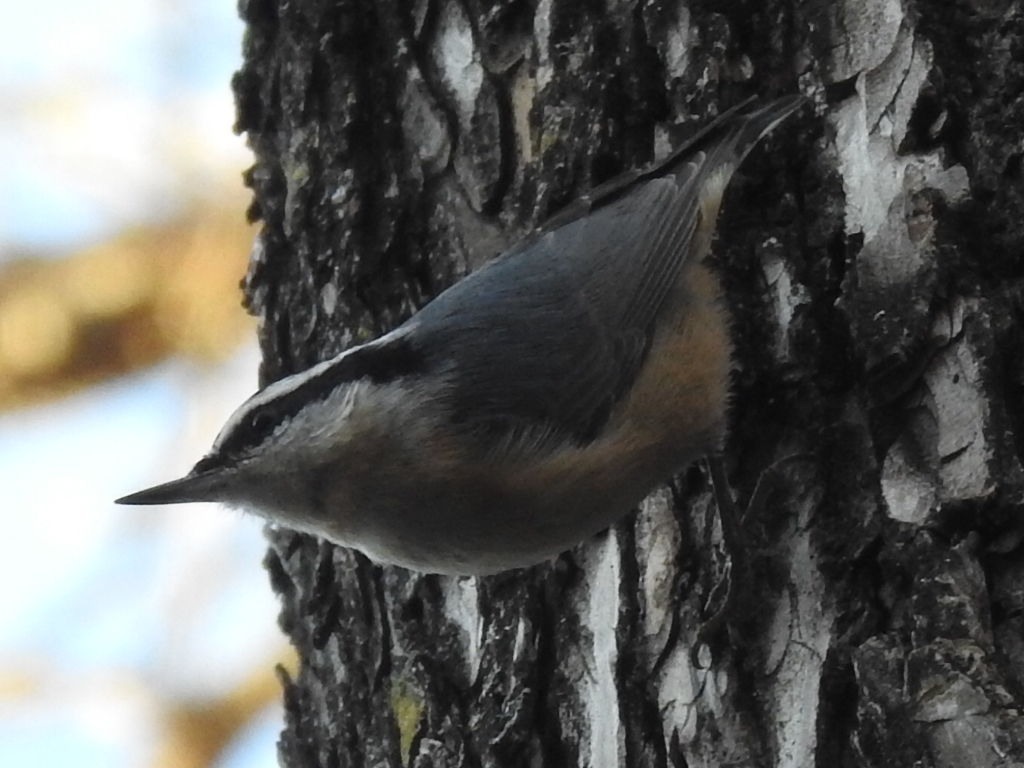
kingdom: Animalia
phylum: Chordata
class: Aves
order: Passeriformes
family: Sittidae
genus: Sitta
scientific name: Sitta canadensis
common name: Red-breasted nuthatch
